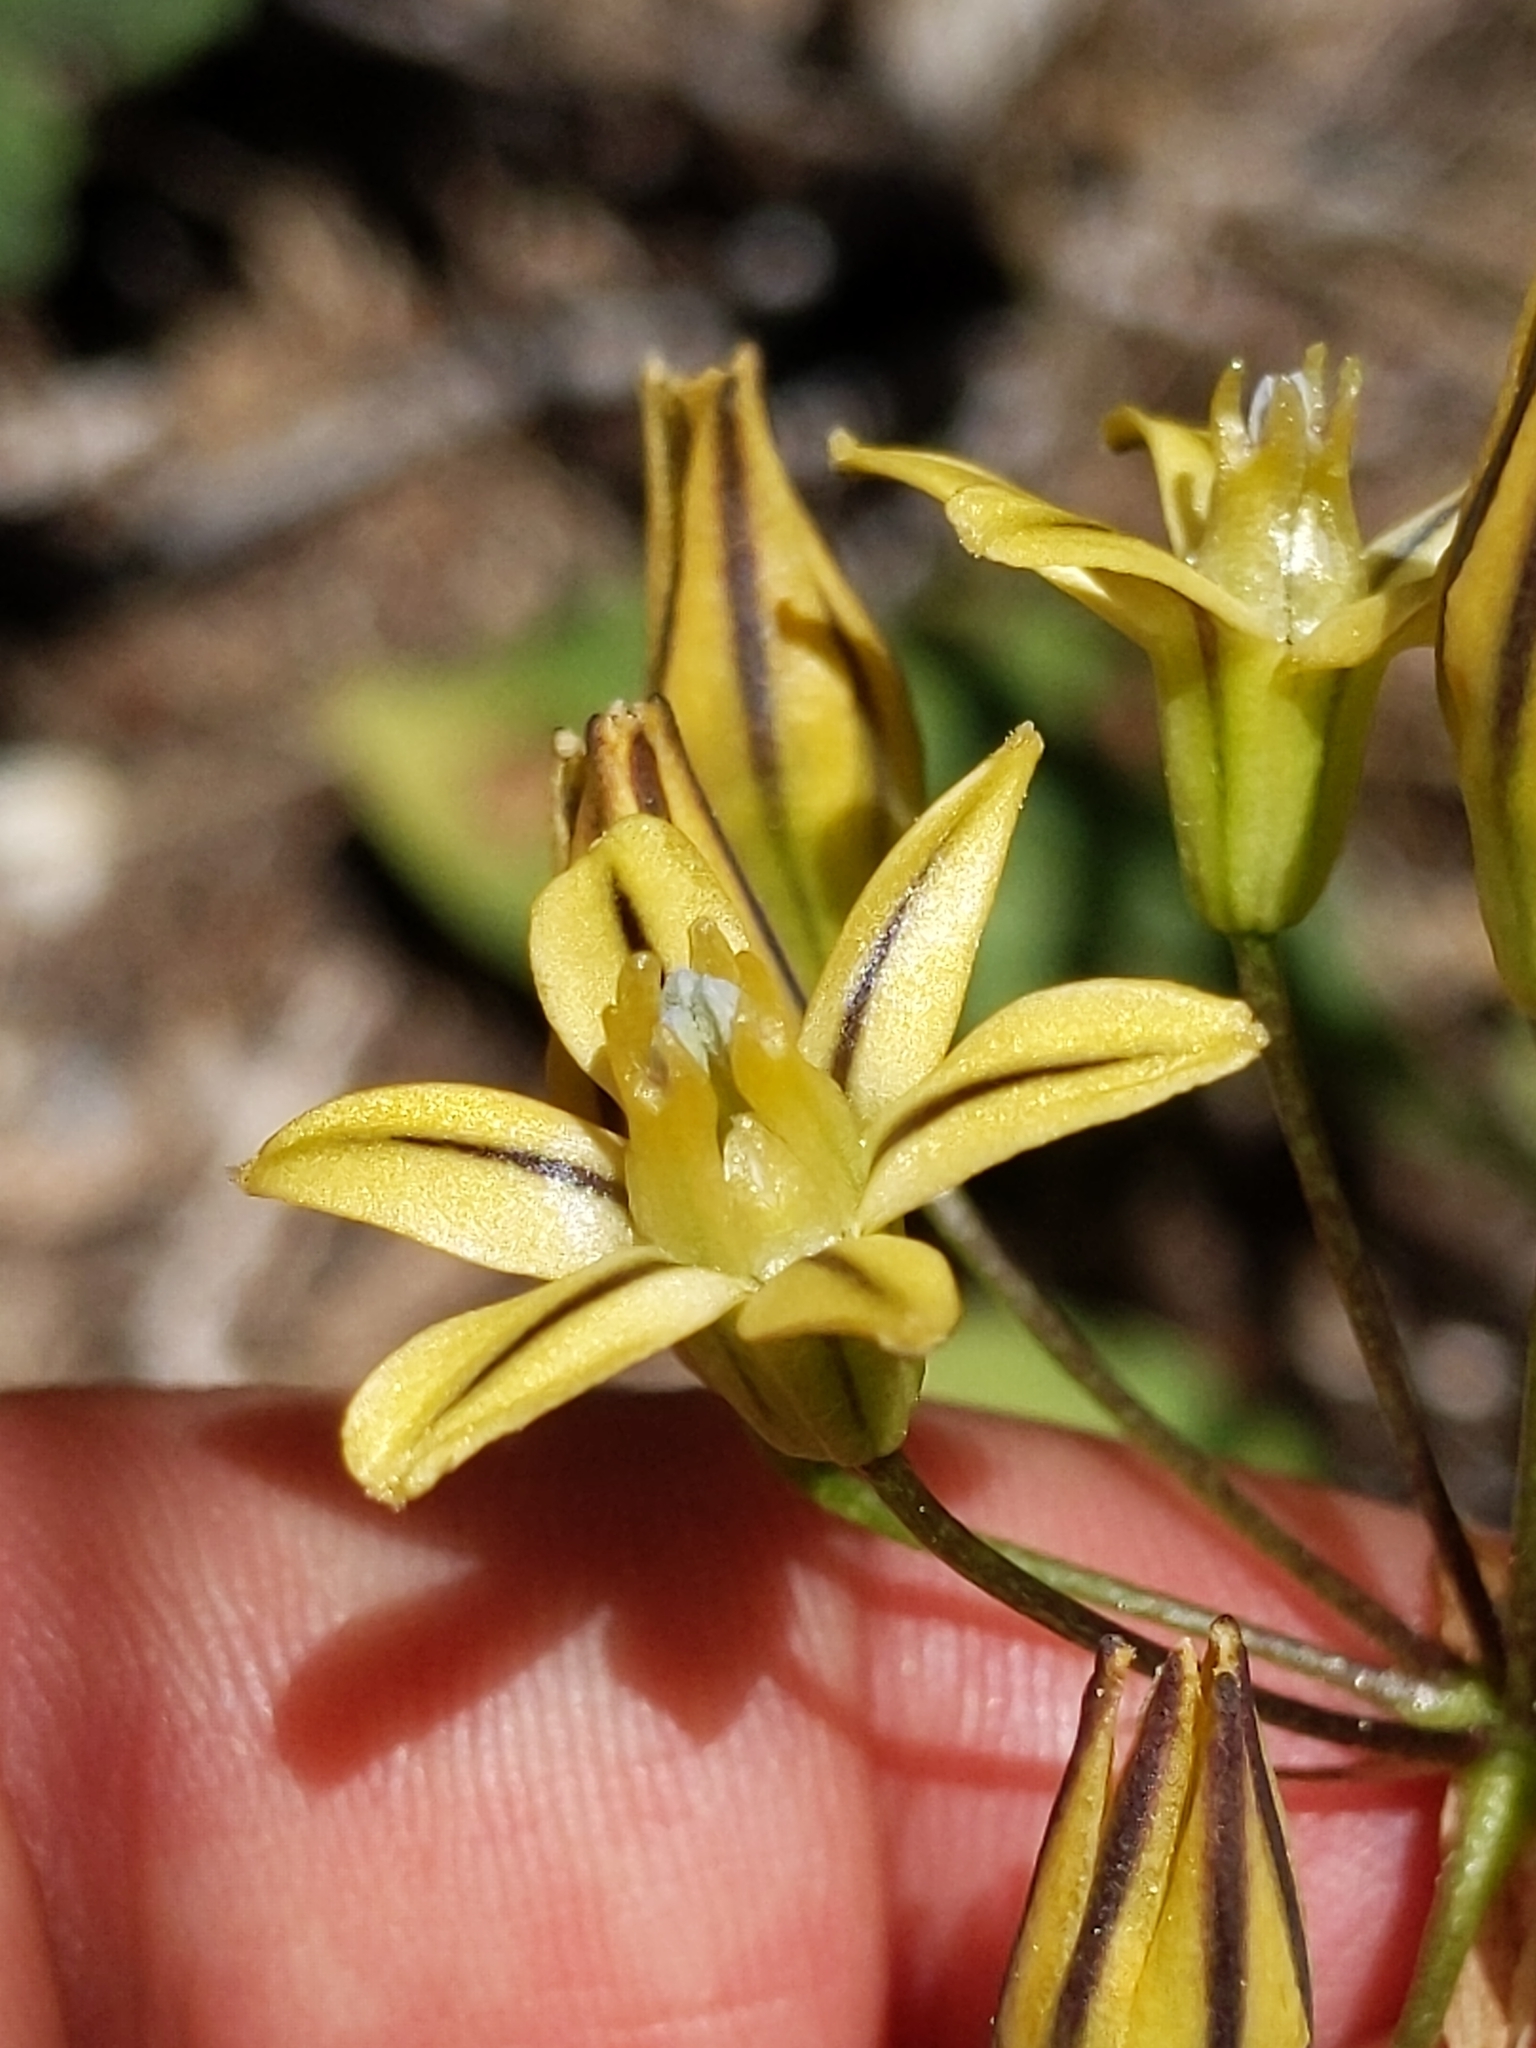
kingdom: Plantae
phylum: Tracheophyta
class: Liliopsida
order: Asparagales
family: Asparagaceae
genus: Triteleia
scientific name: Triteleia ixioides
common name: Yellow-brodiaea
